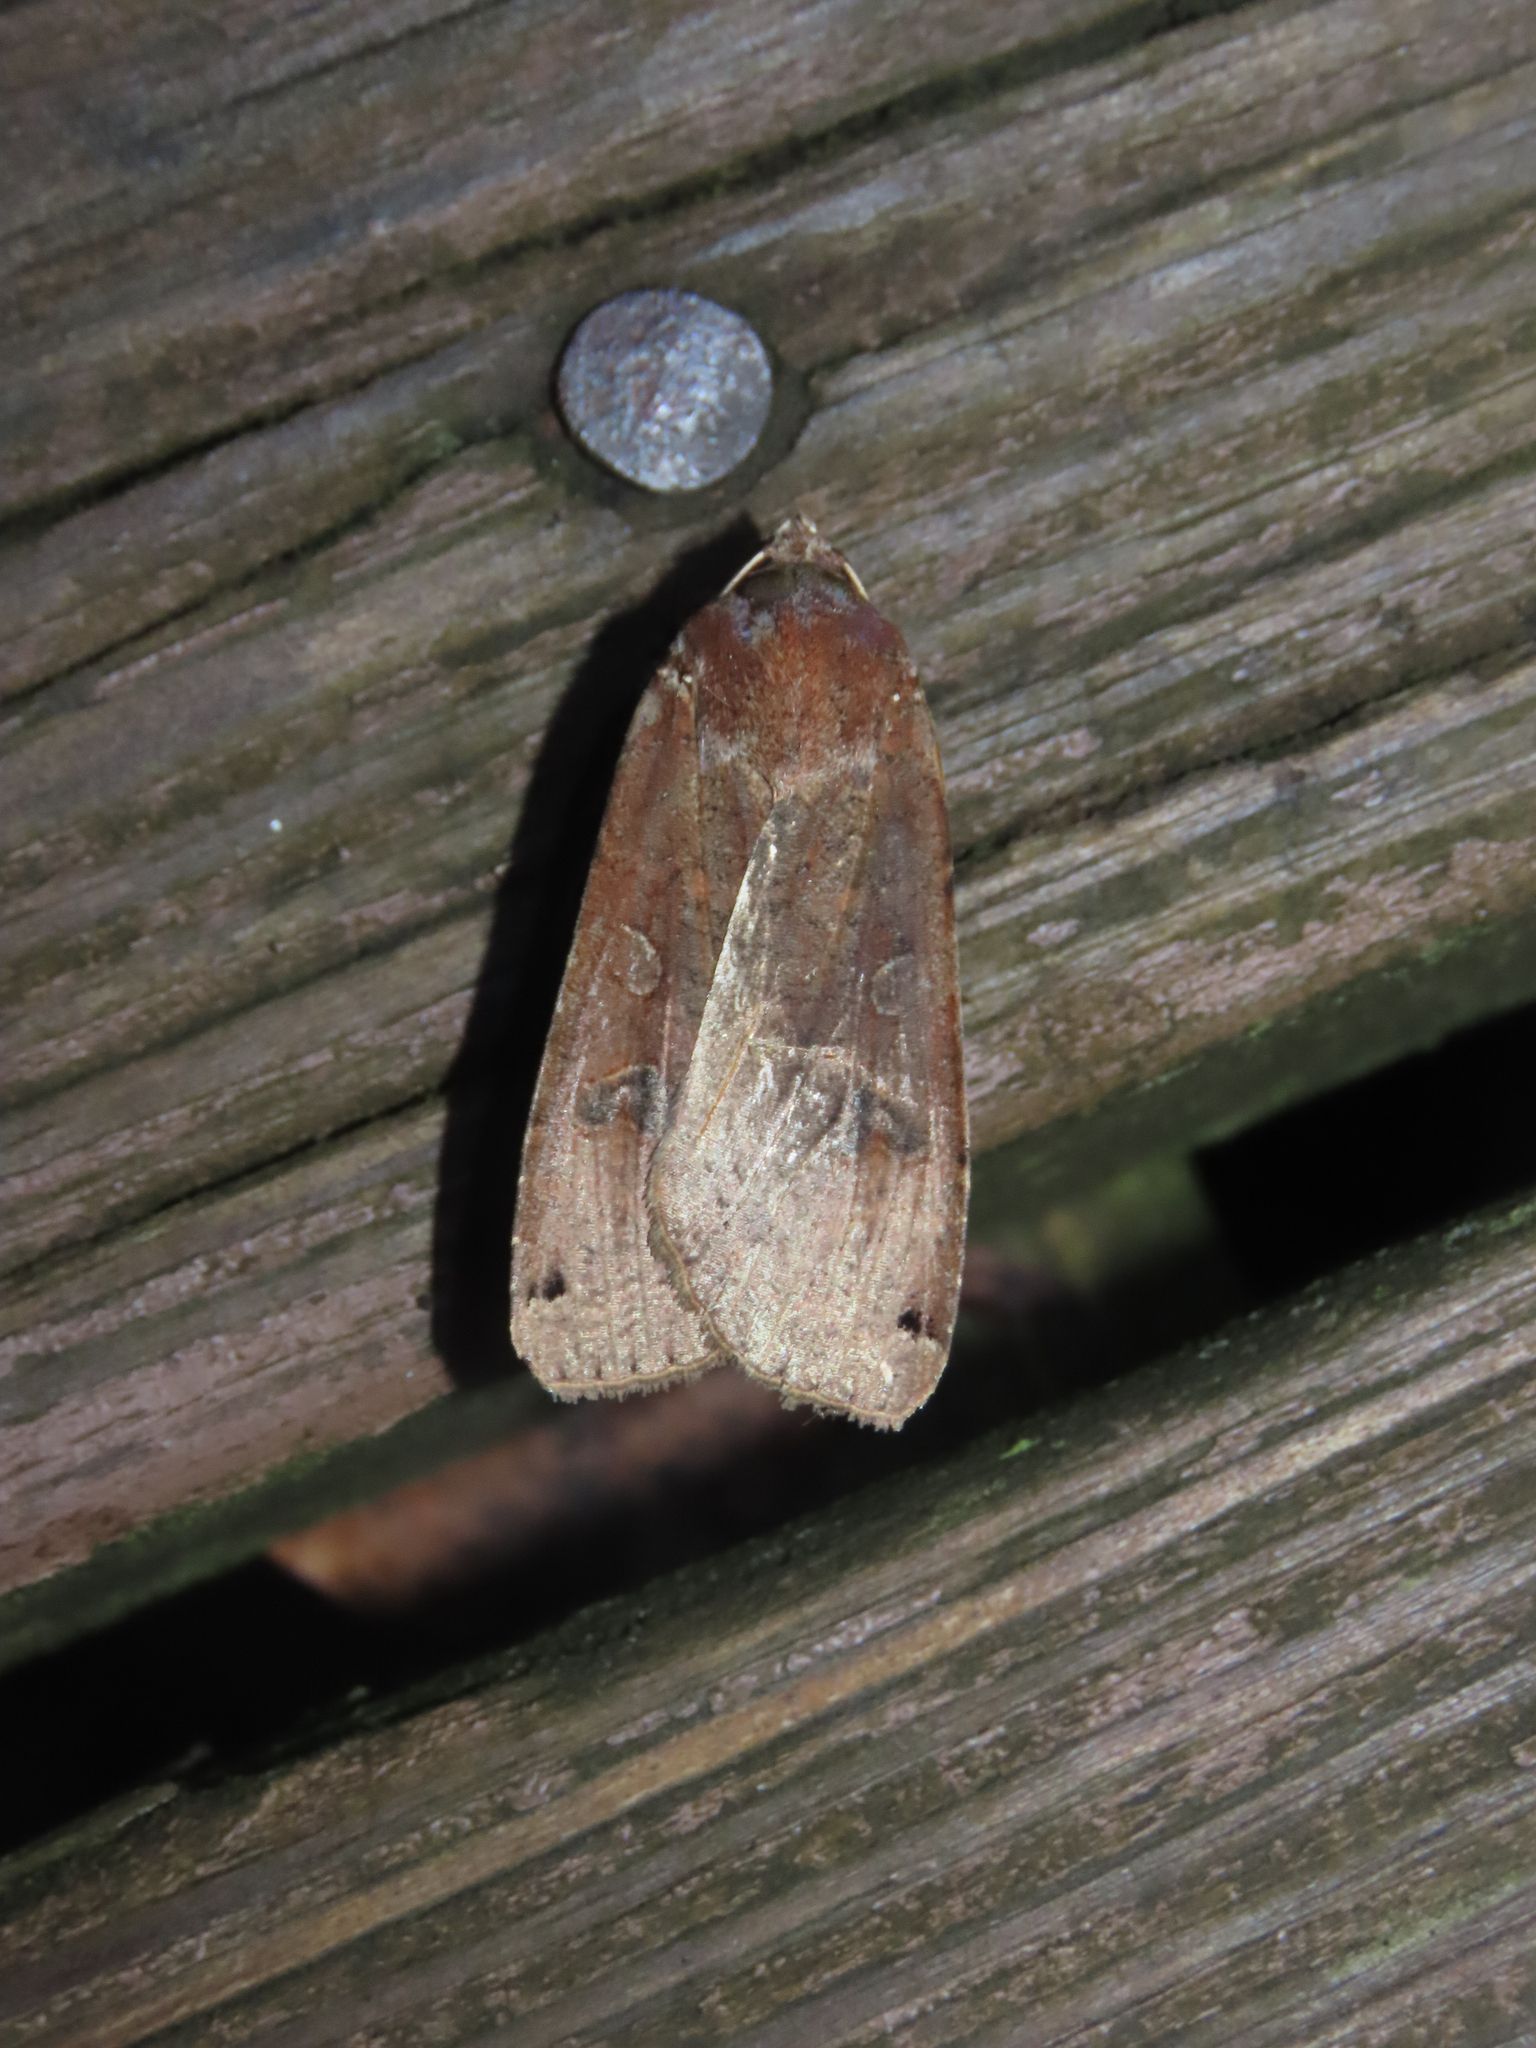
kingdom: Animalia
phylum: Arthropoda
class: Insecta
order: Lepidoptera
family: Noctuidae
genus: Noctua
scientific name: Noctua pronuba
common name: Large yellow underwing
